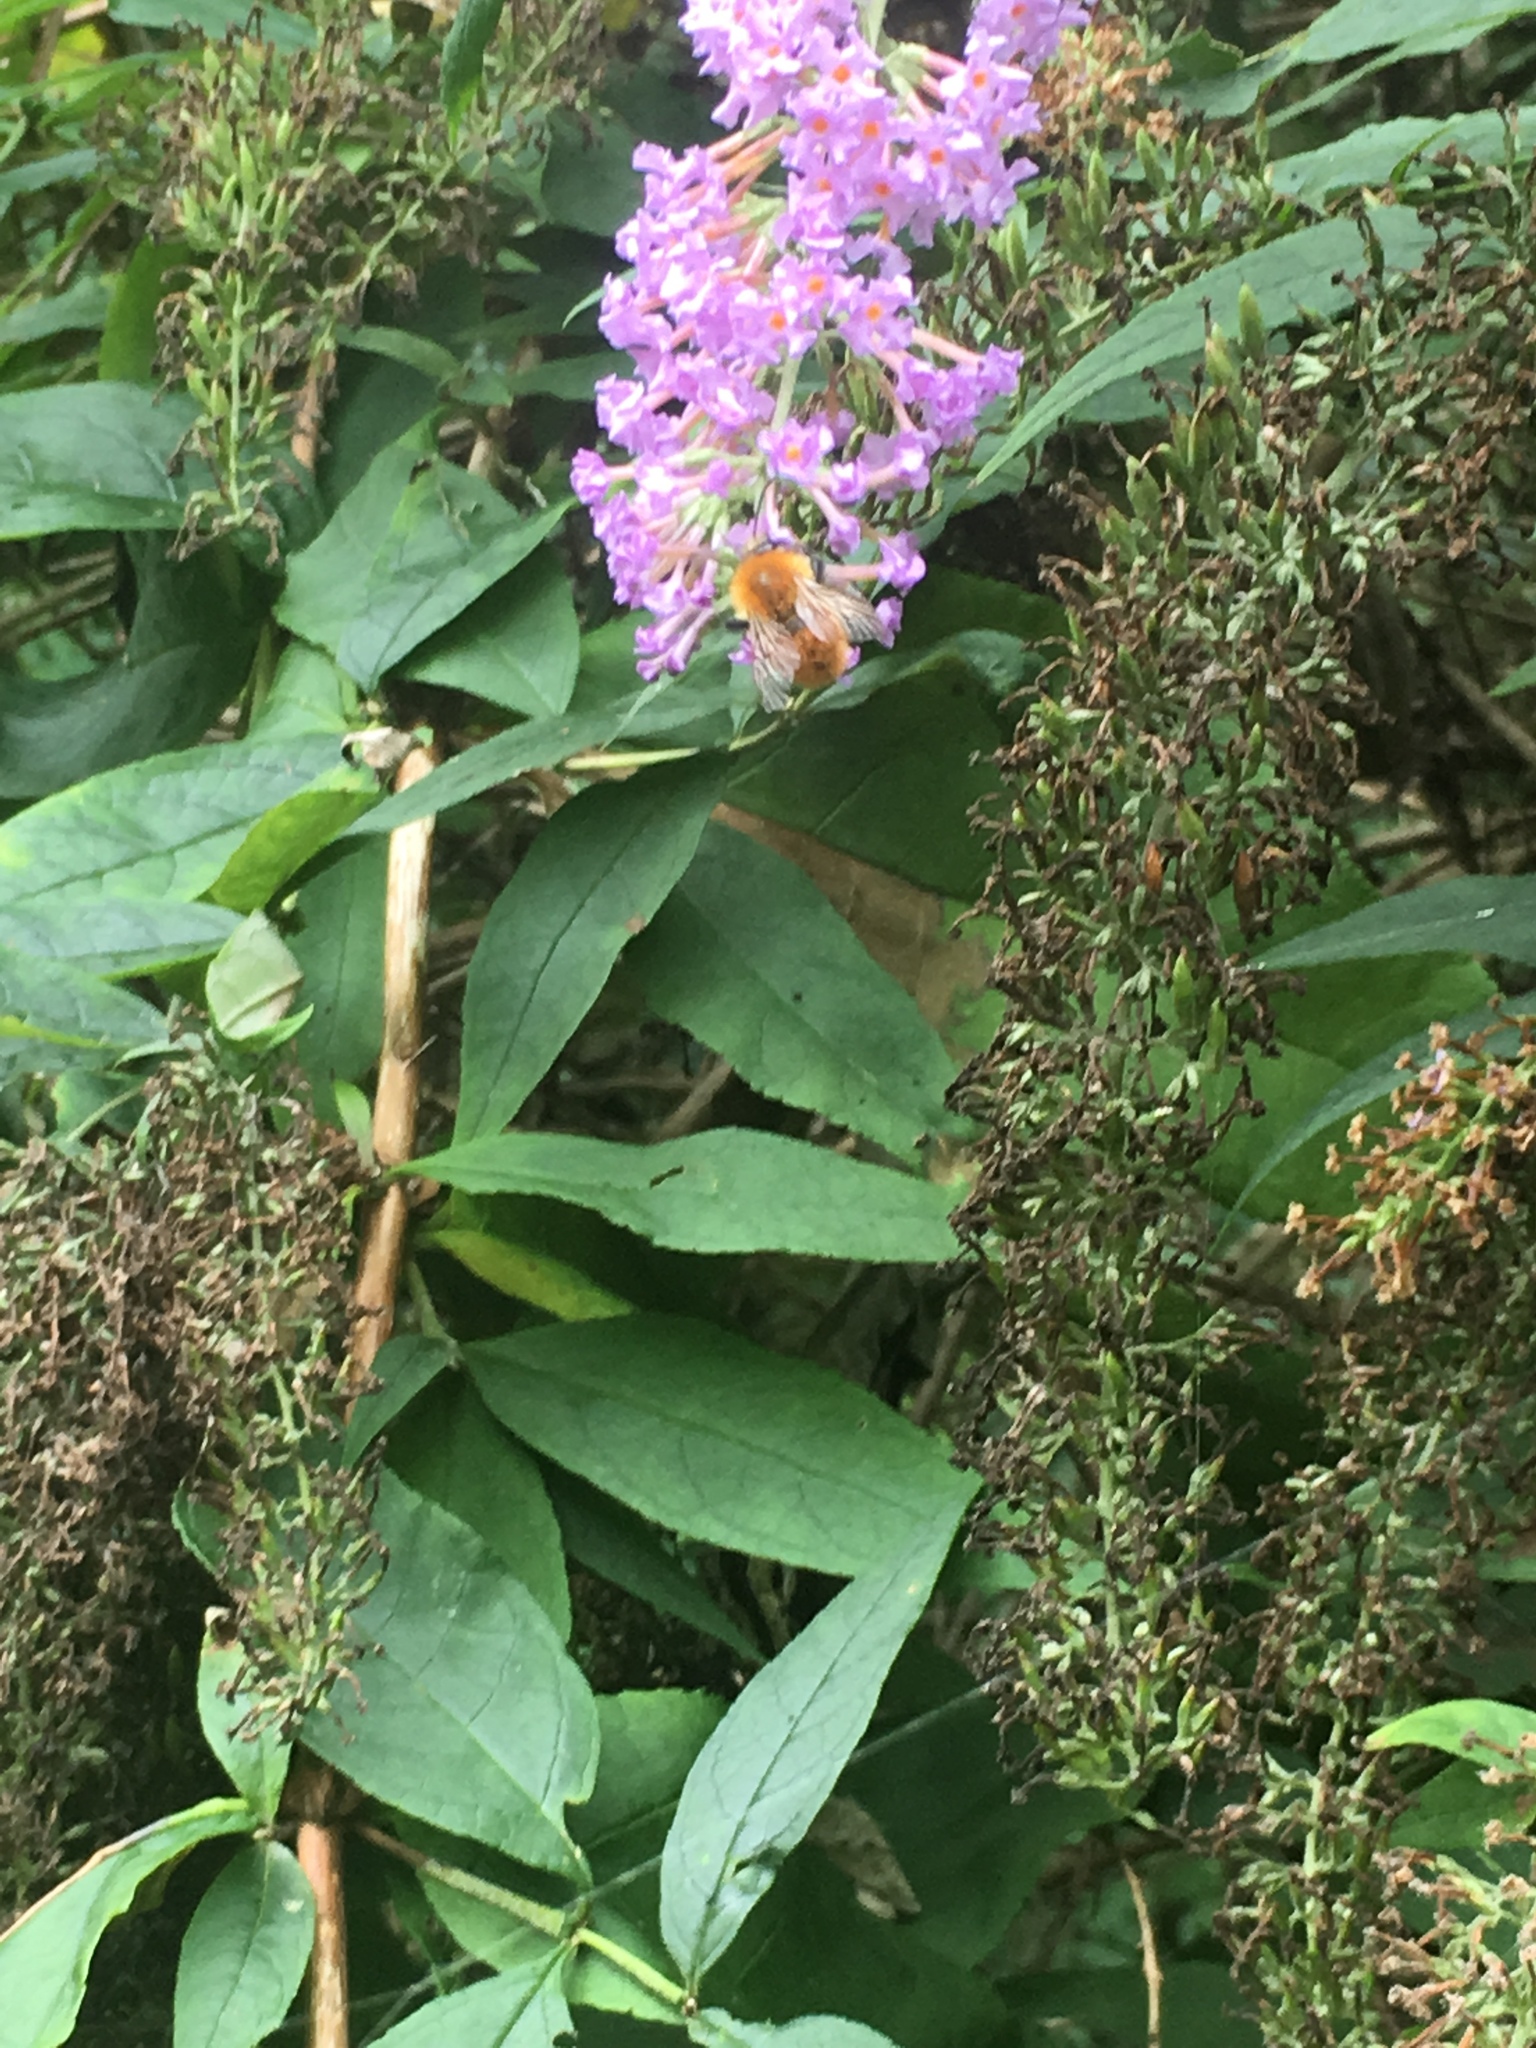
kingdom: Plantae
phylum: Tracheophyta
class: Magnoliopsida
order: Lamiales
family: Scrophulariaceae
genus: Buddleja
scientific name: Buddleja davidii
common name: Butterfly-bush
